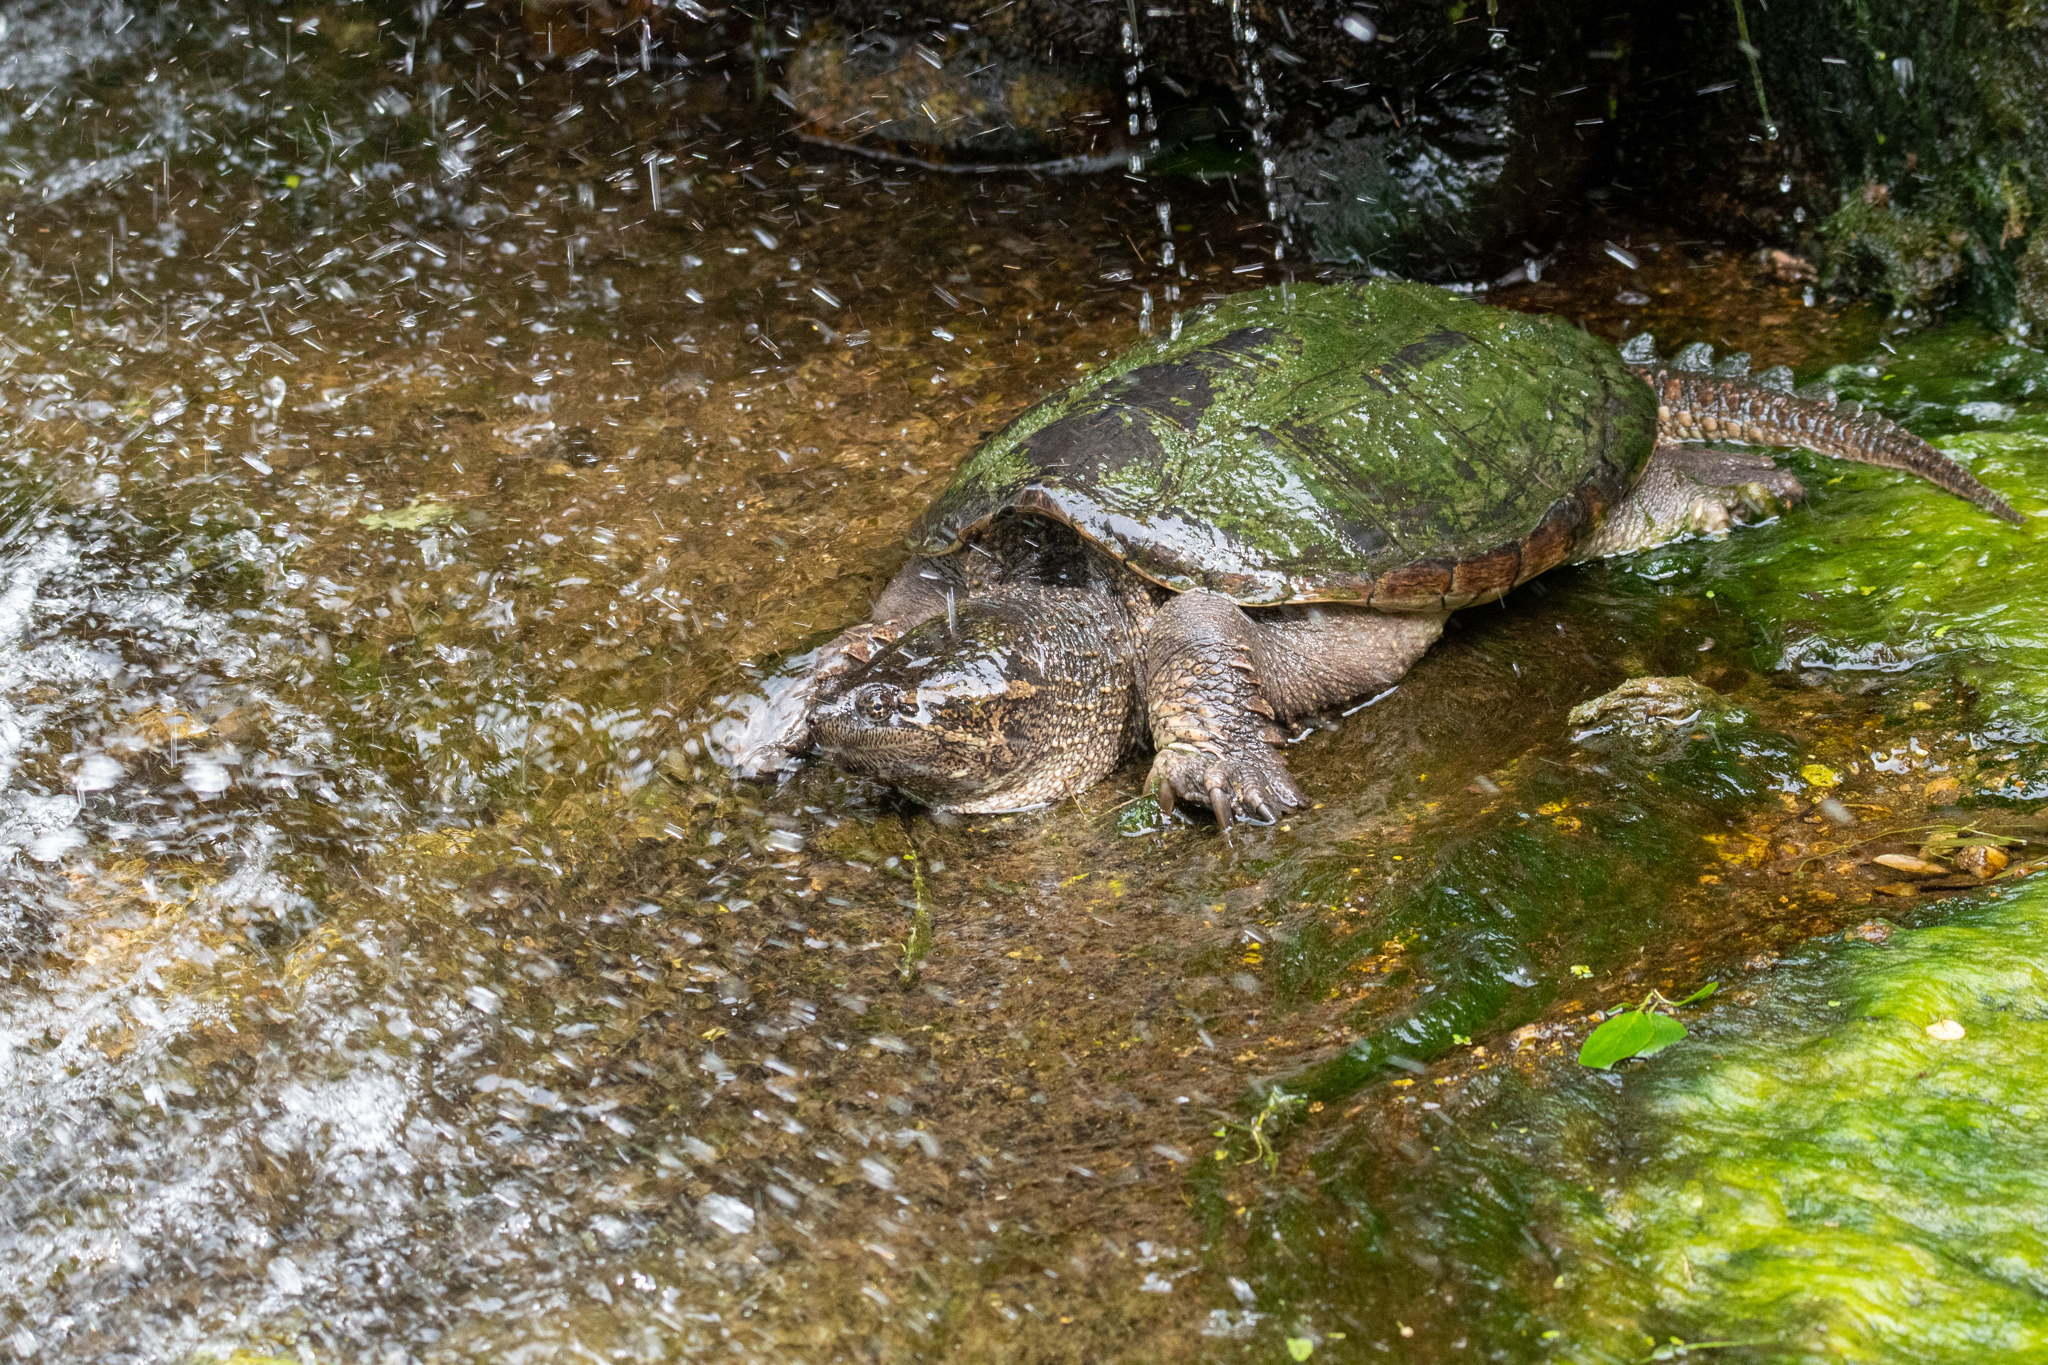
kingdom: Animalia
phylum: Chordata
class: Testudines
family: Chelydridae
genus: Chelydra
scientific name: Chelydra serpentina
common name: Common snapping turtle
